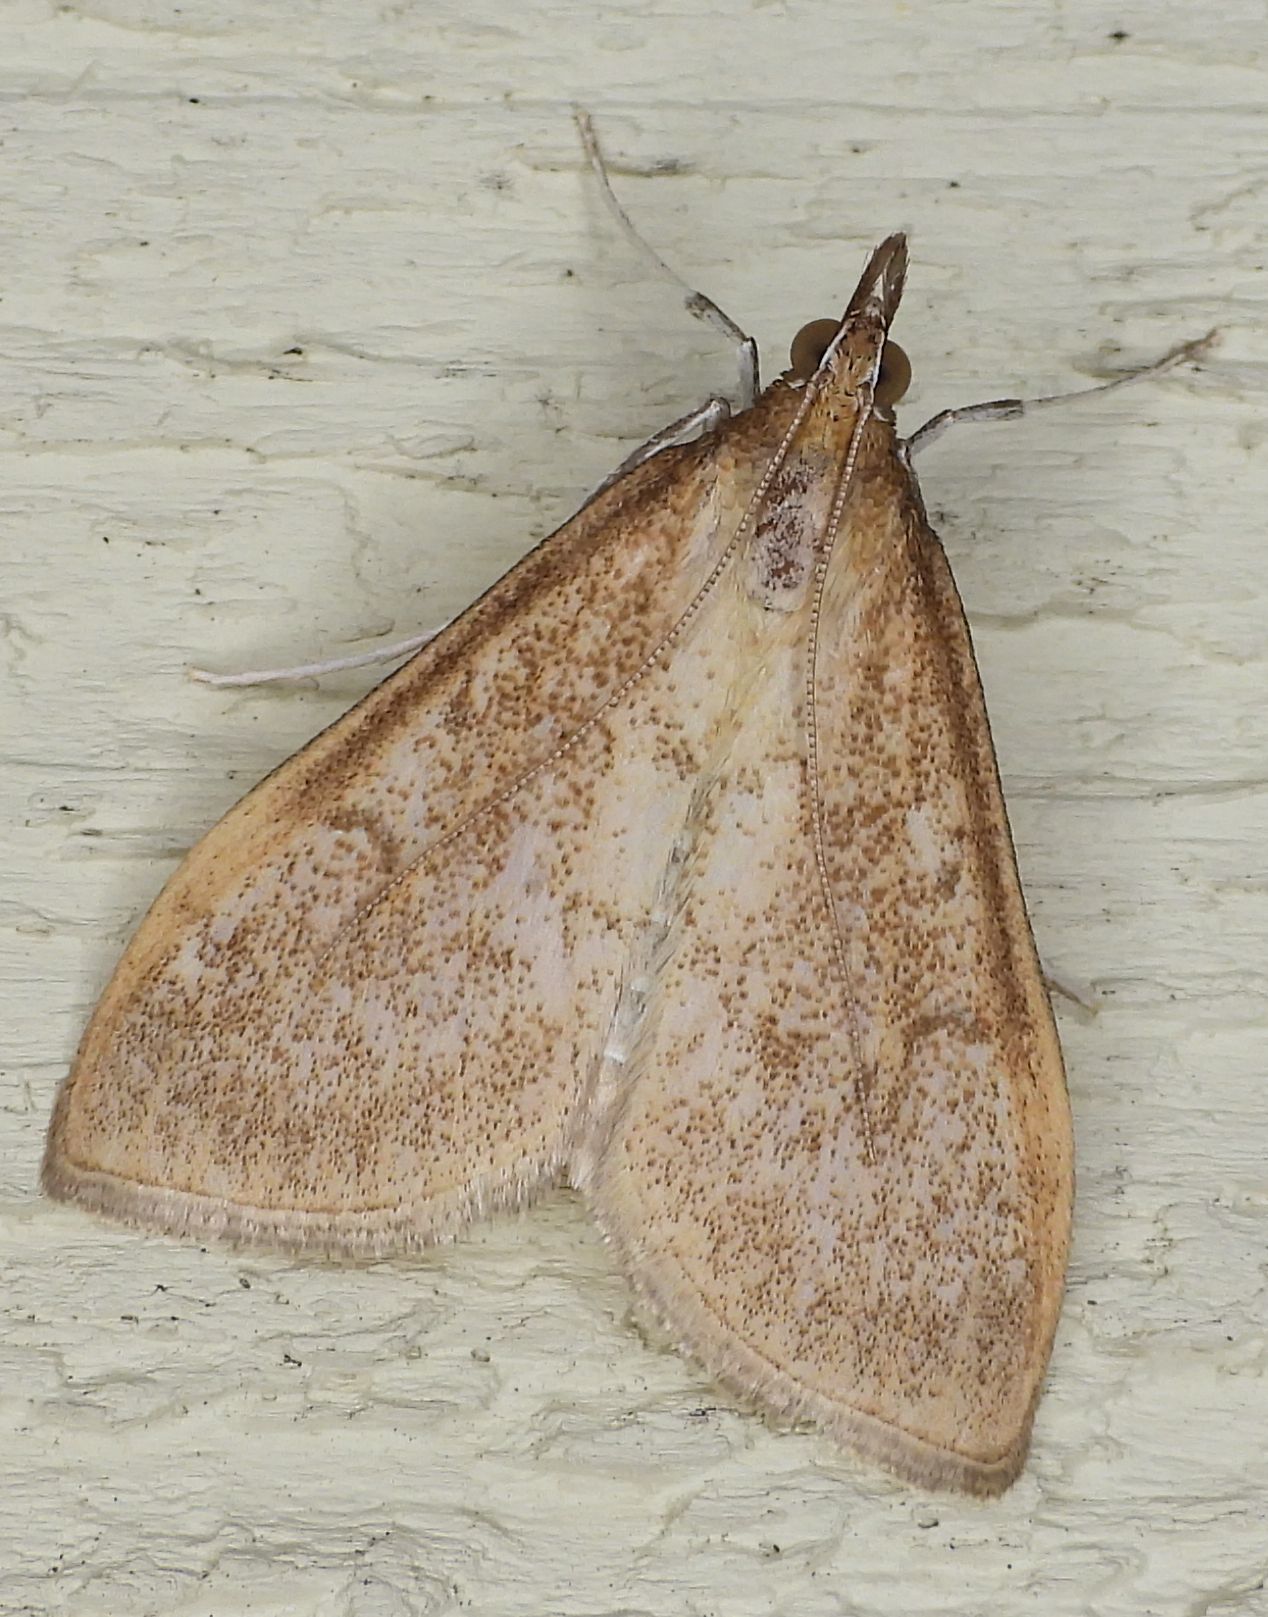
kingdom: Animalia
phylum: Arthropoda
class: Insecta
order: Lepidoptera
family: Crambidae
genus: Saucrobotys
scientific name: Saucrobotys futilalis
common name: Dogbane saucrobotys moth
